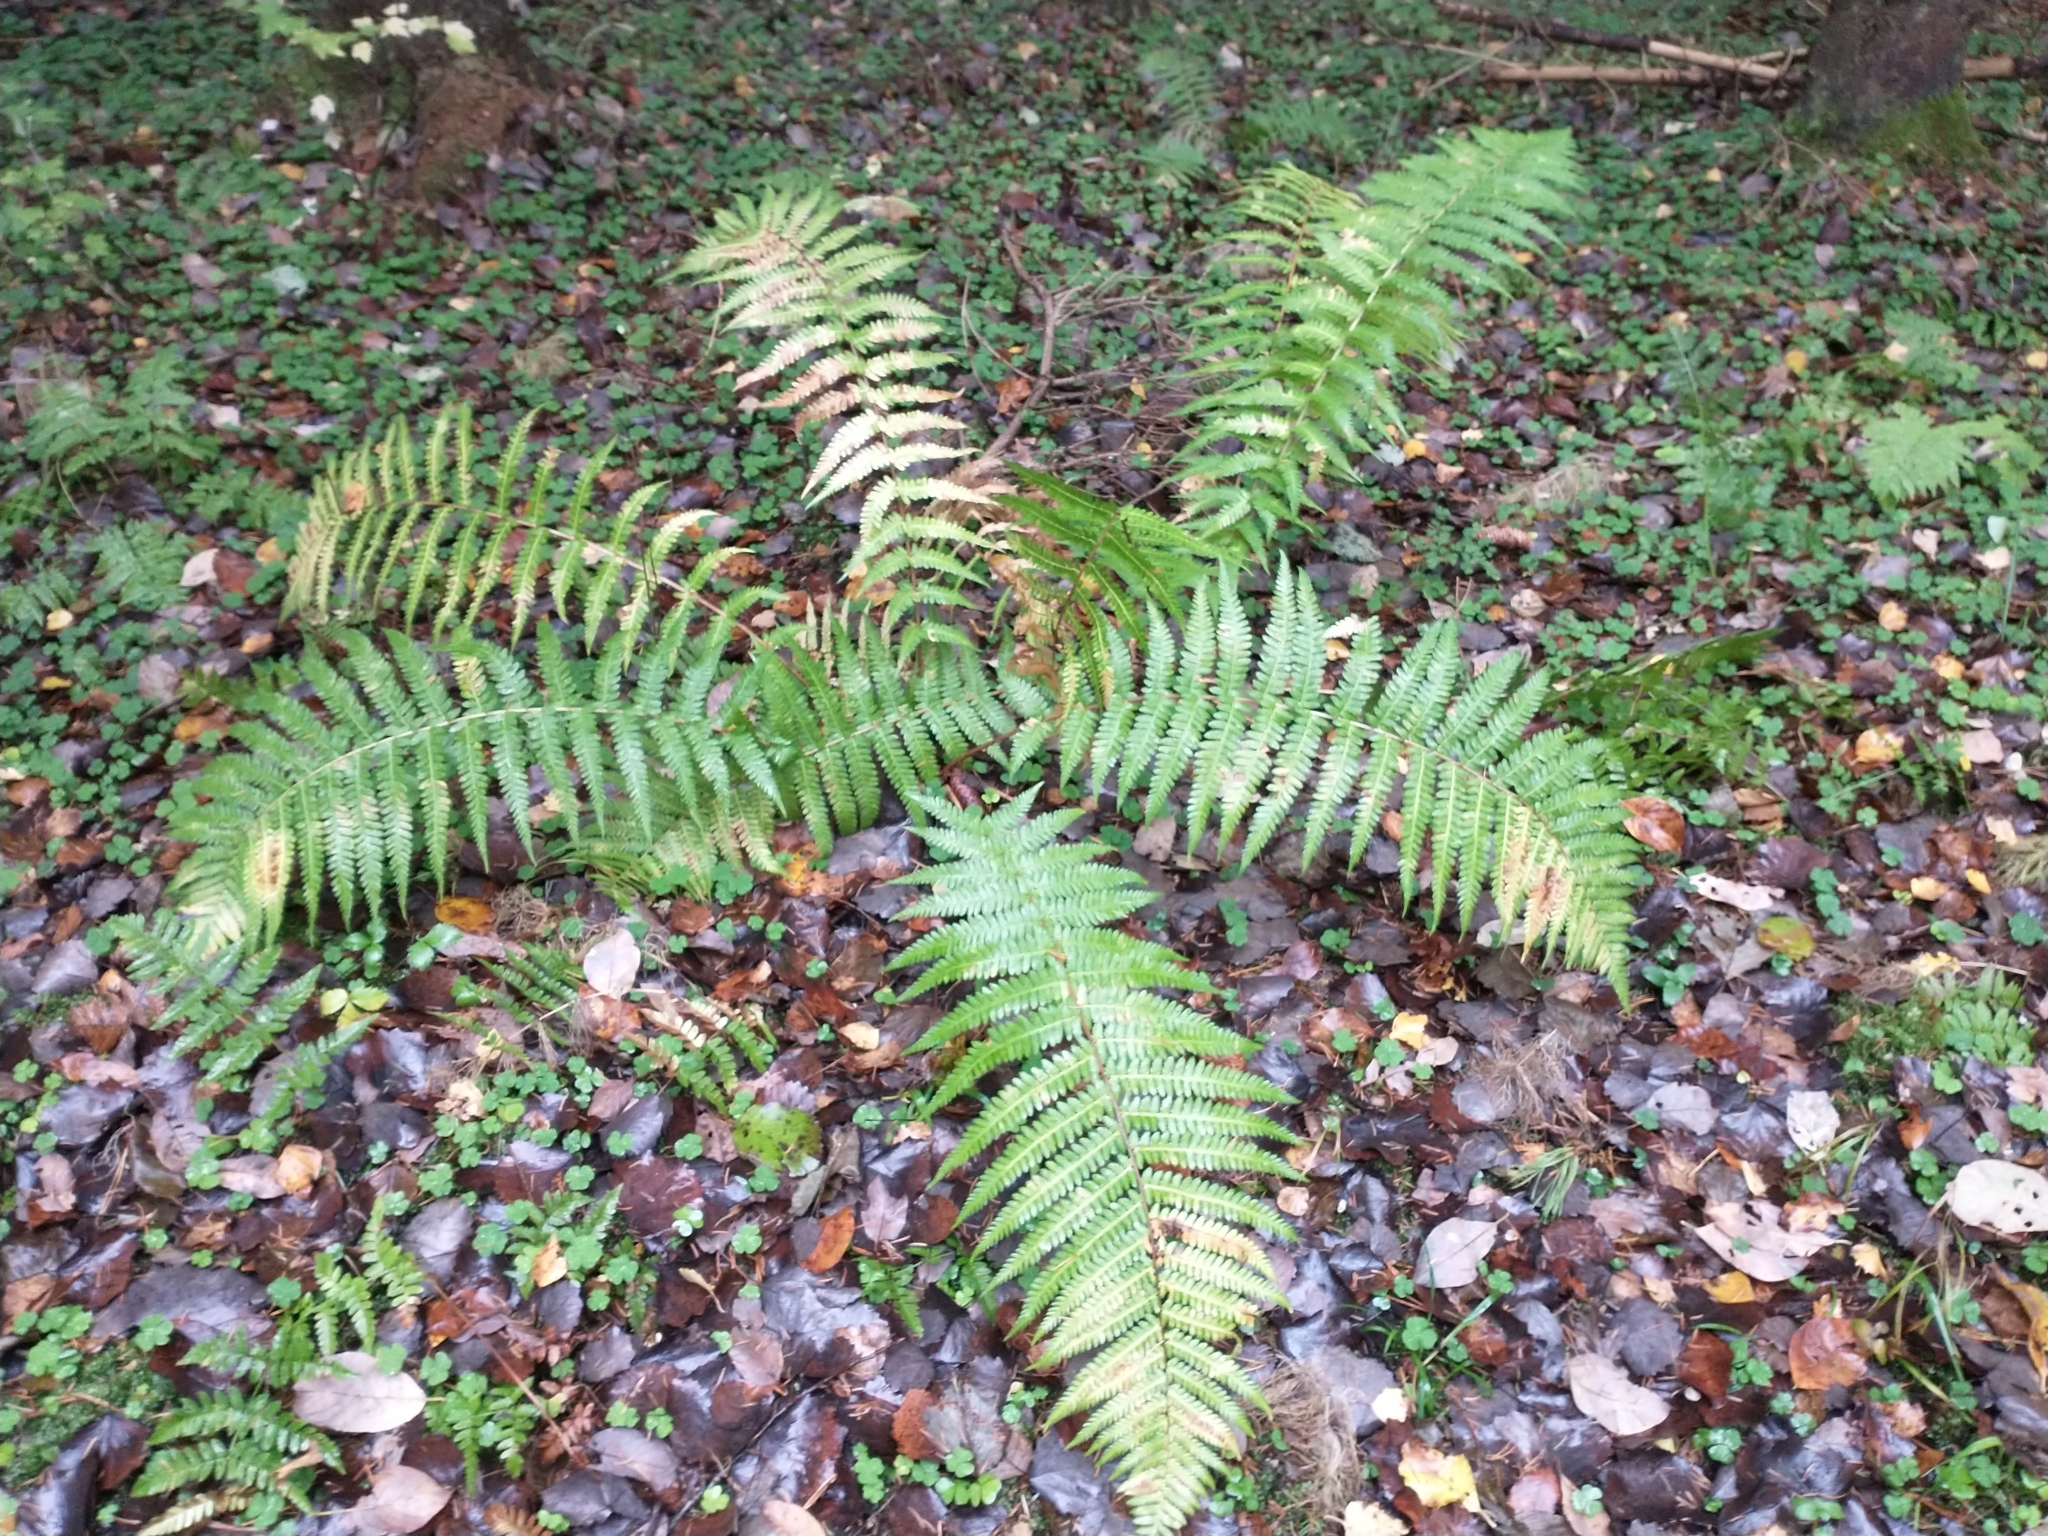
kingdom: Plantae
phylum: Tracheophyta
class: Polypodiopsida
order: Polypodiales
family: Dryopteridaceae
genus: Dryopteris
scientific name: Dryopteris filix-mas
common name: Male fern
